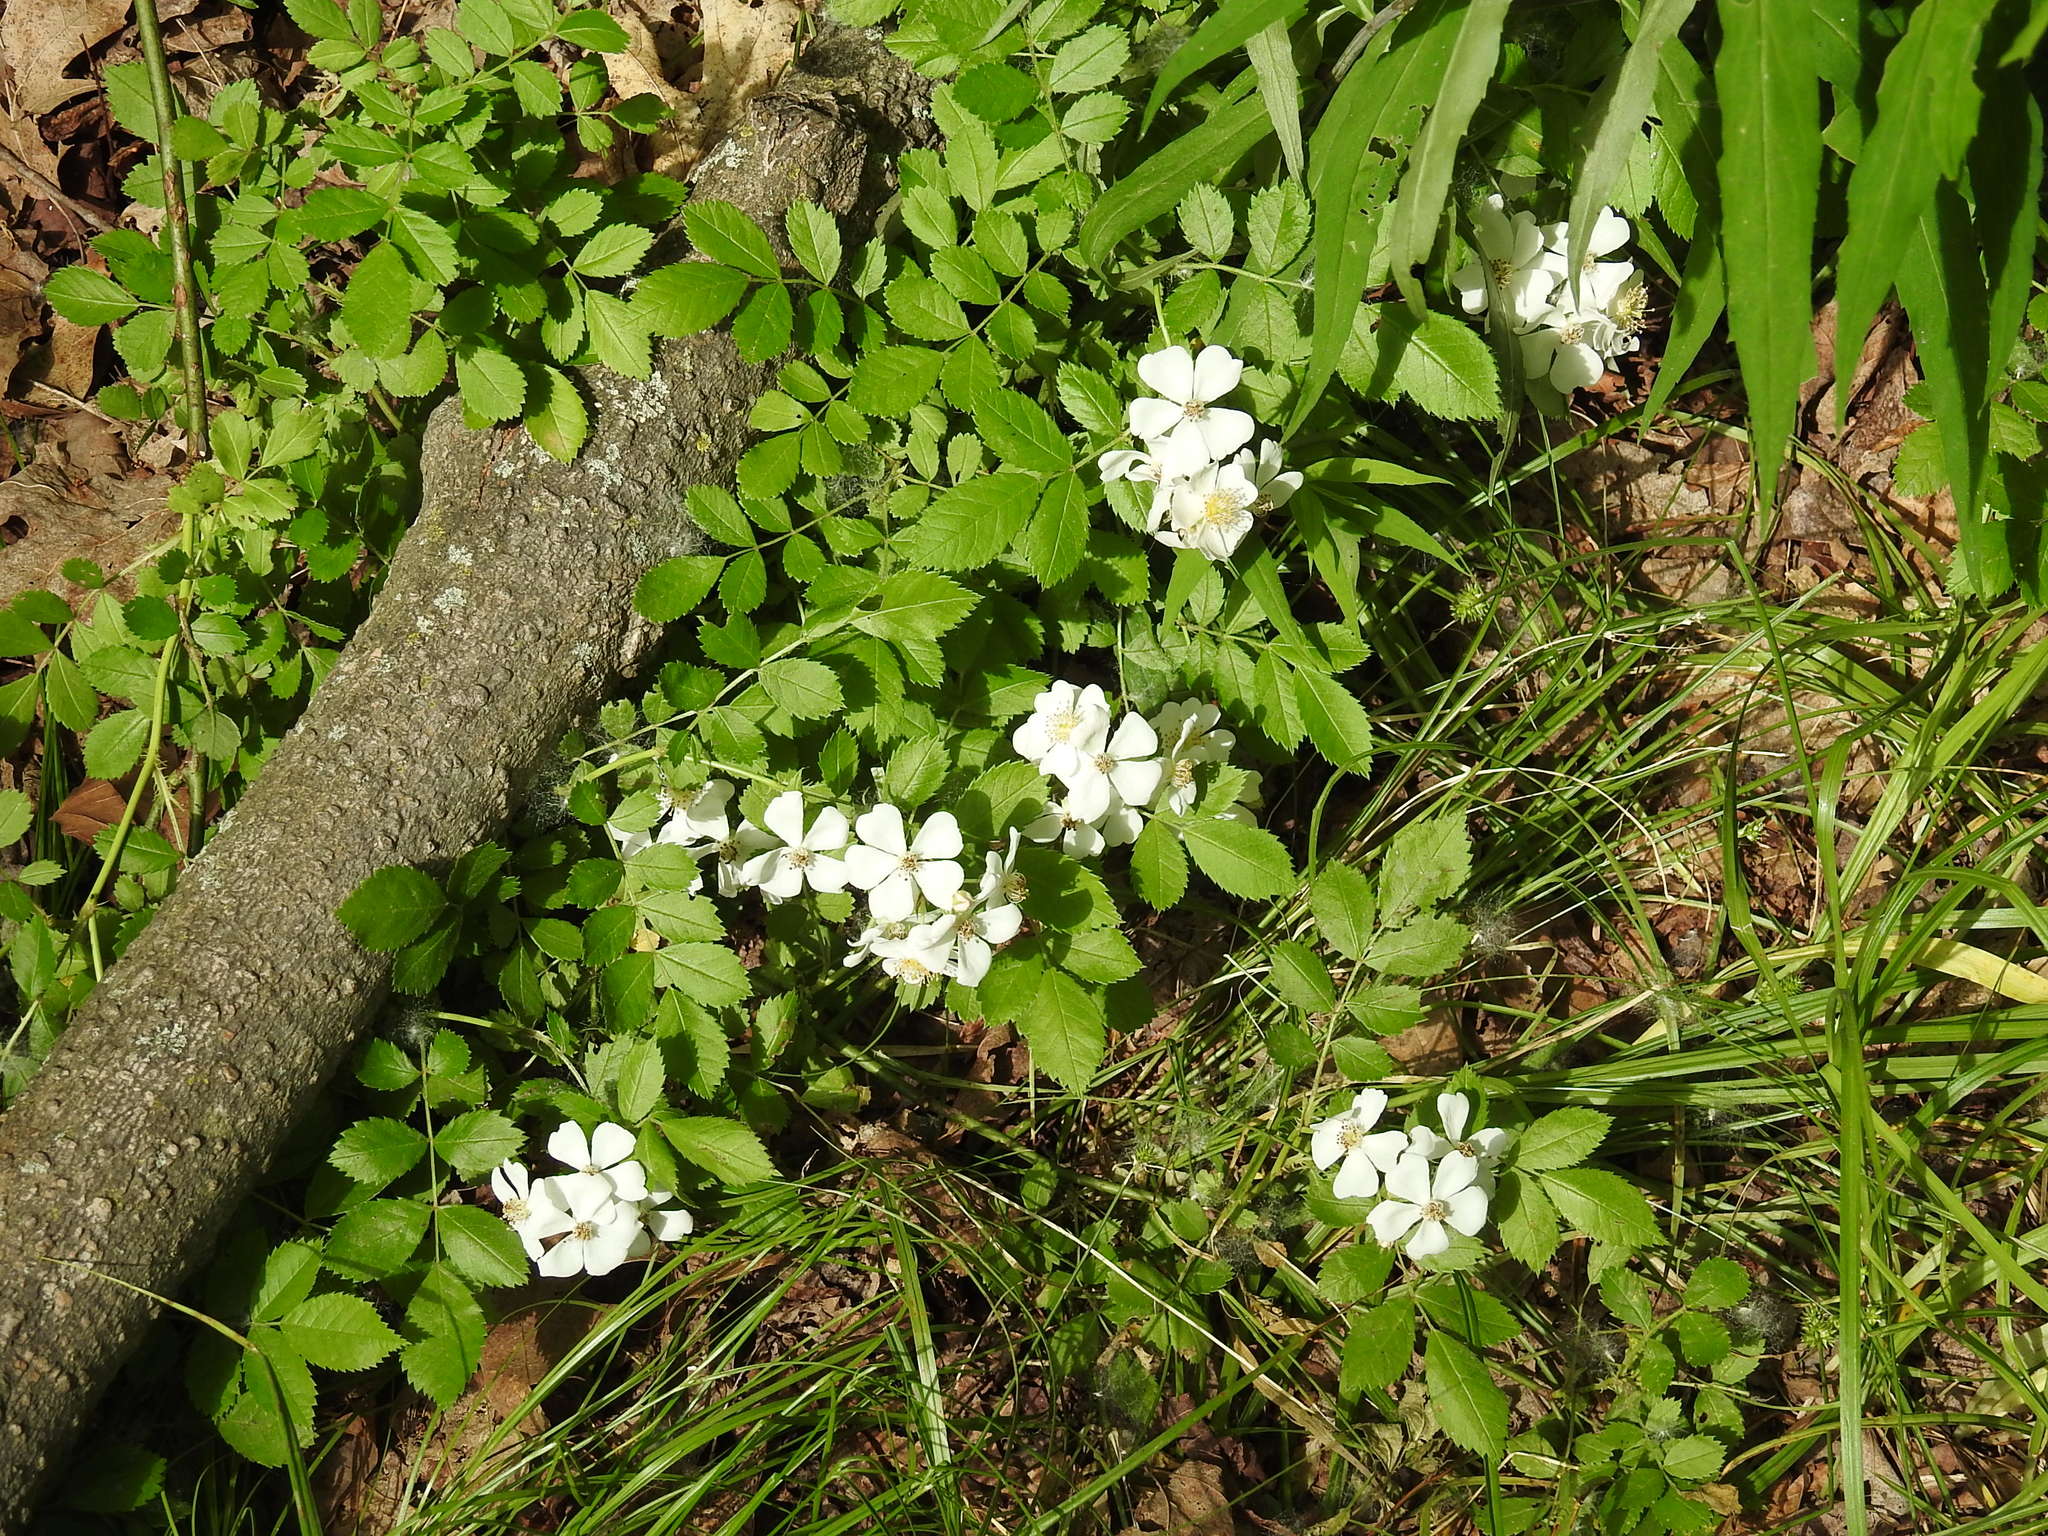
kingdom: Plantae
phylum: Tracheophyta
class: Magnoliopsida
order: Rosales
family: Rosaceae
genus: Rosa
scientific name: Rosa multiflora
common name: Multiflora rose
